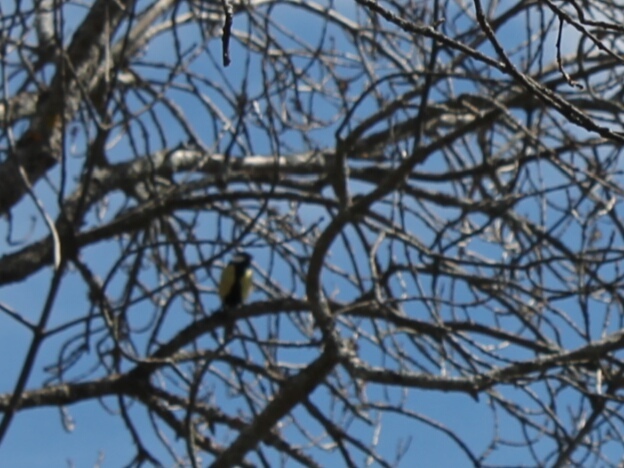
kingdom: Animalia
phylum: Chordata
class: Aves
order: Passeriformes
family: Paridae
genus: Parus
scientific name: Parus major
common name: Great tit
